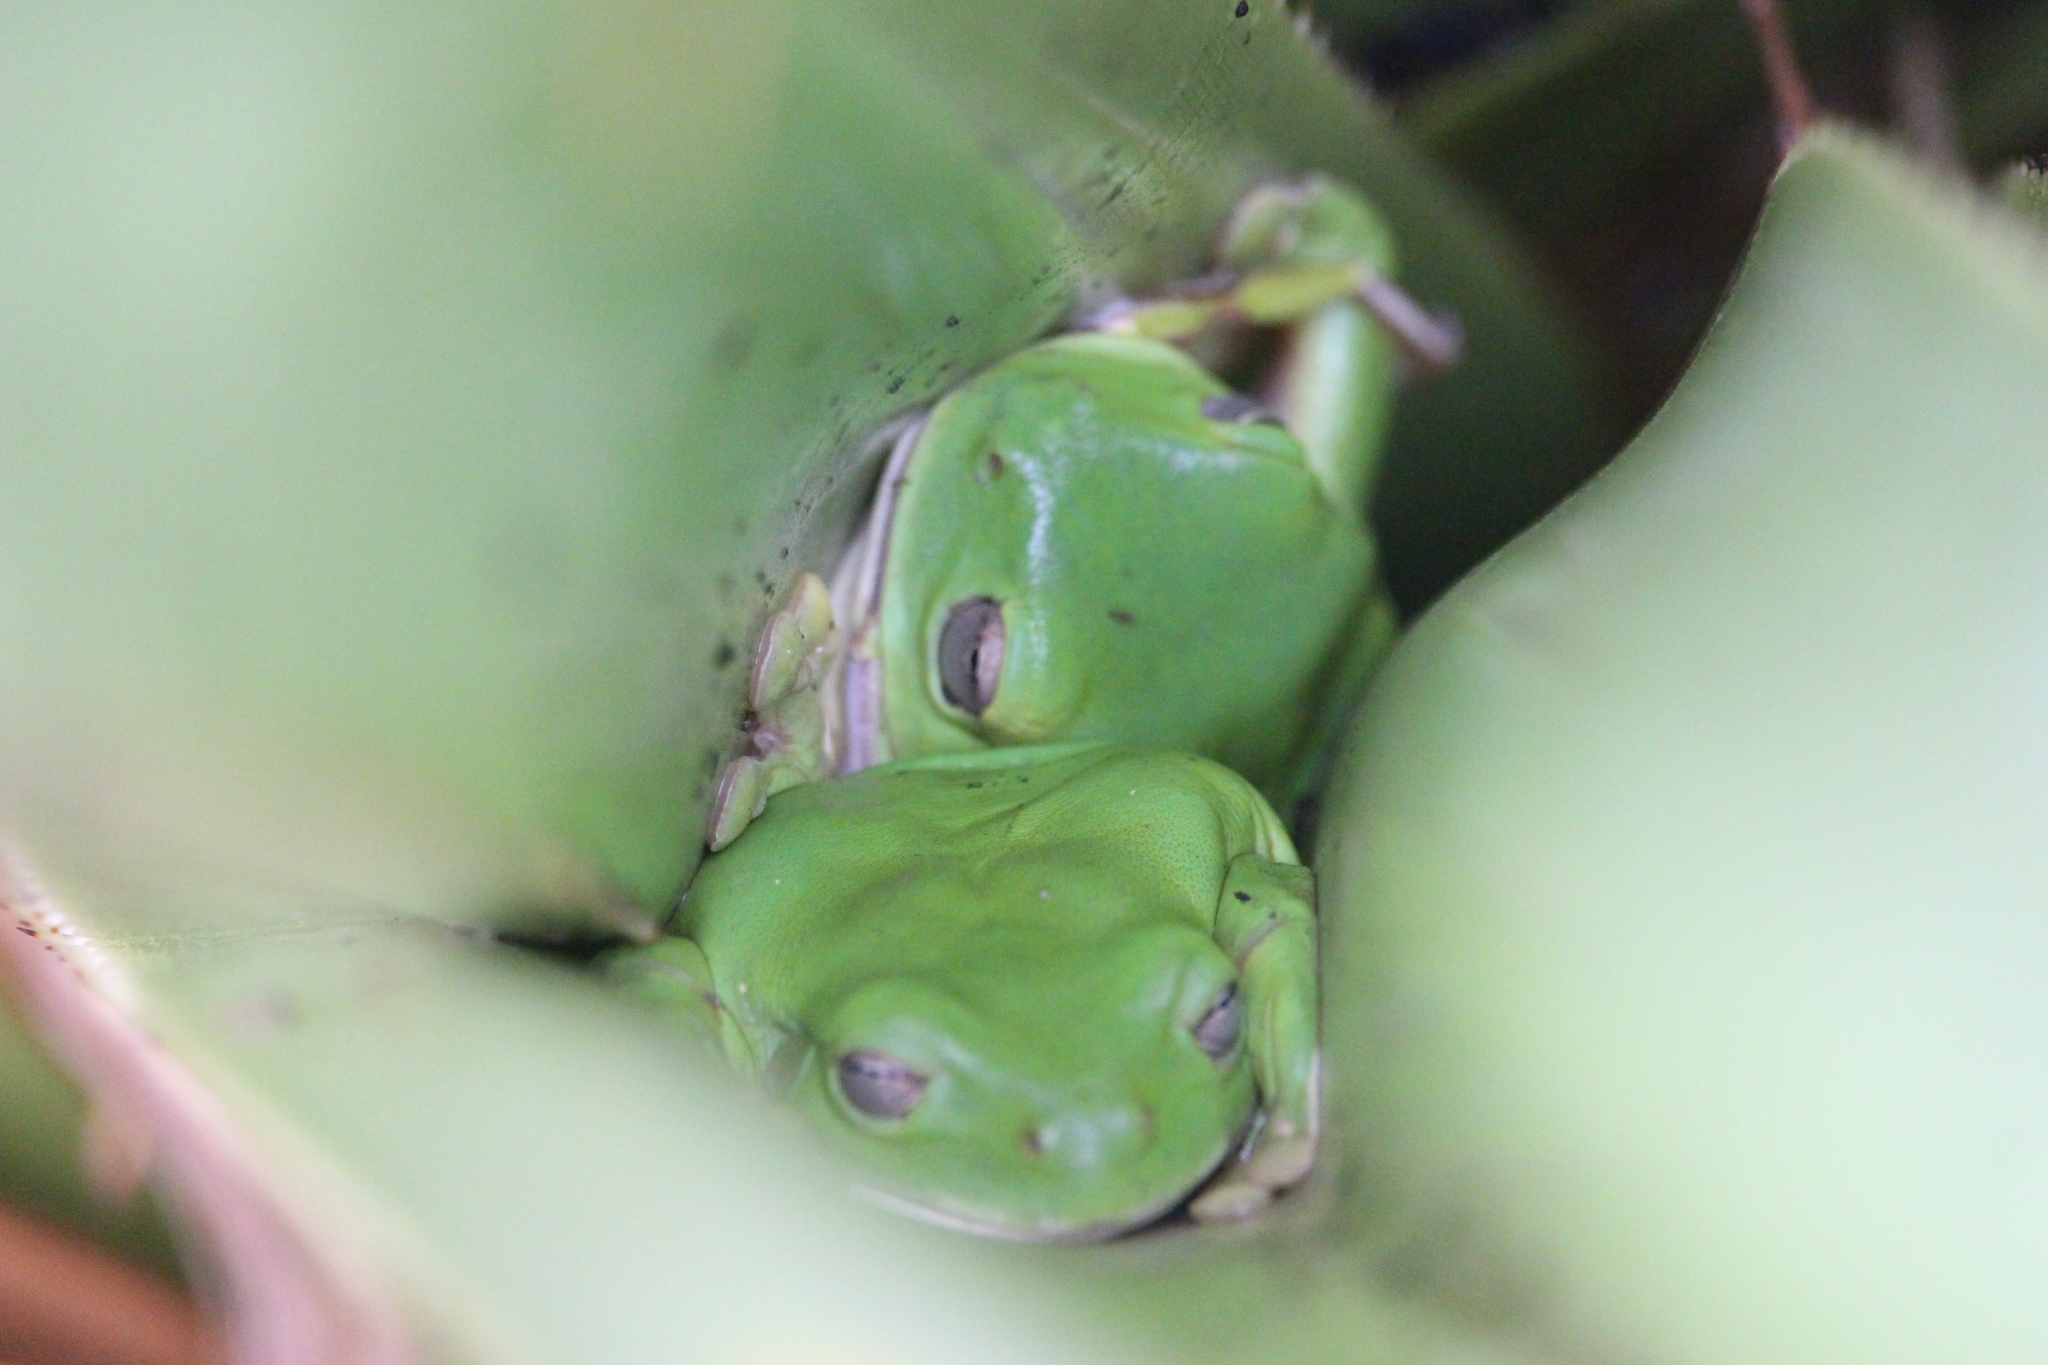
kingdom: Animalia
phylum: Chordata
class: Amphibia
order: Anura
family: Pelodryadidae
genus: Ranoidea
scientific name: Ranoidea caerulea
